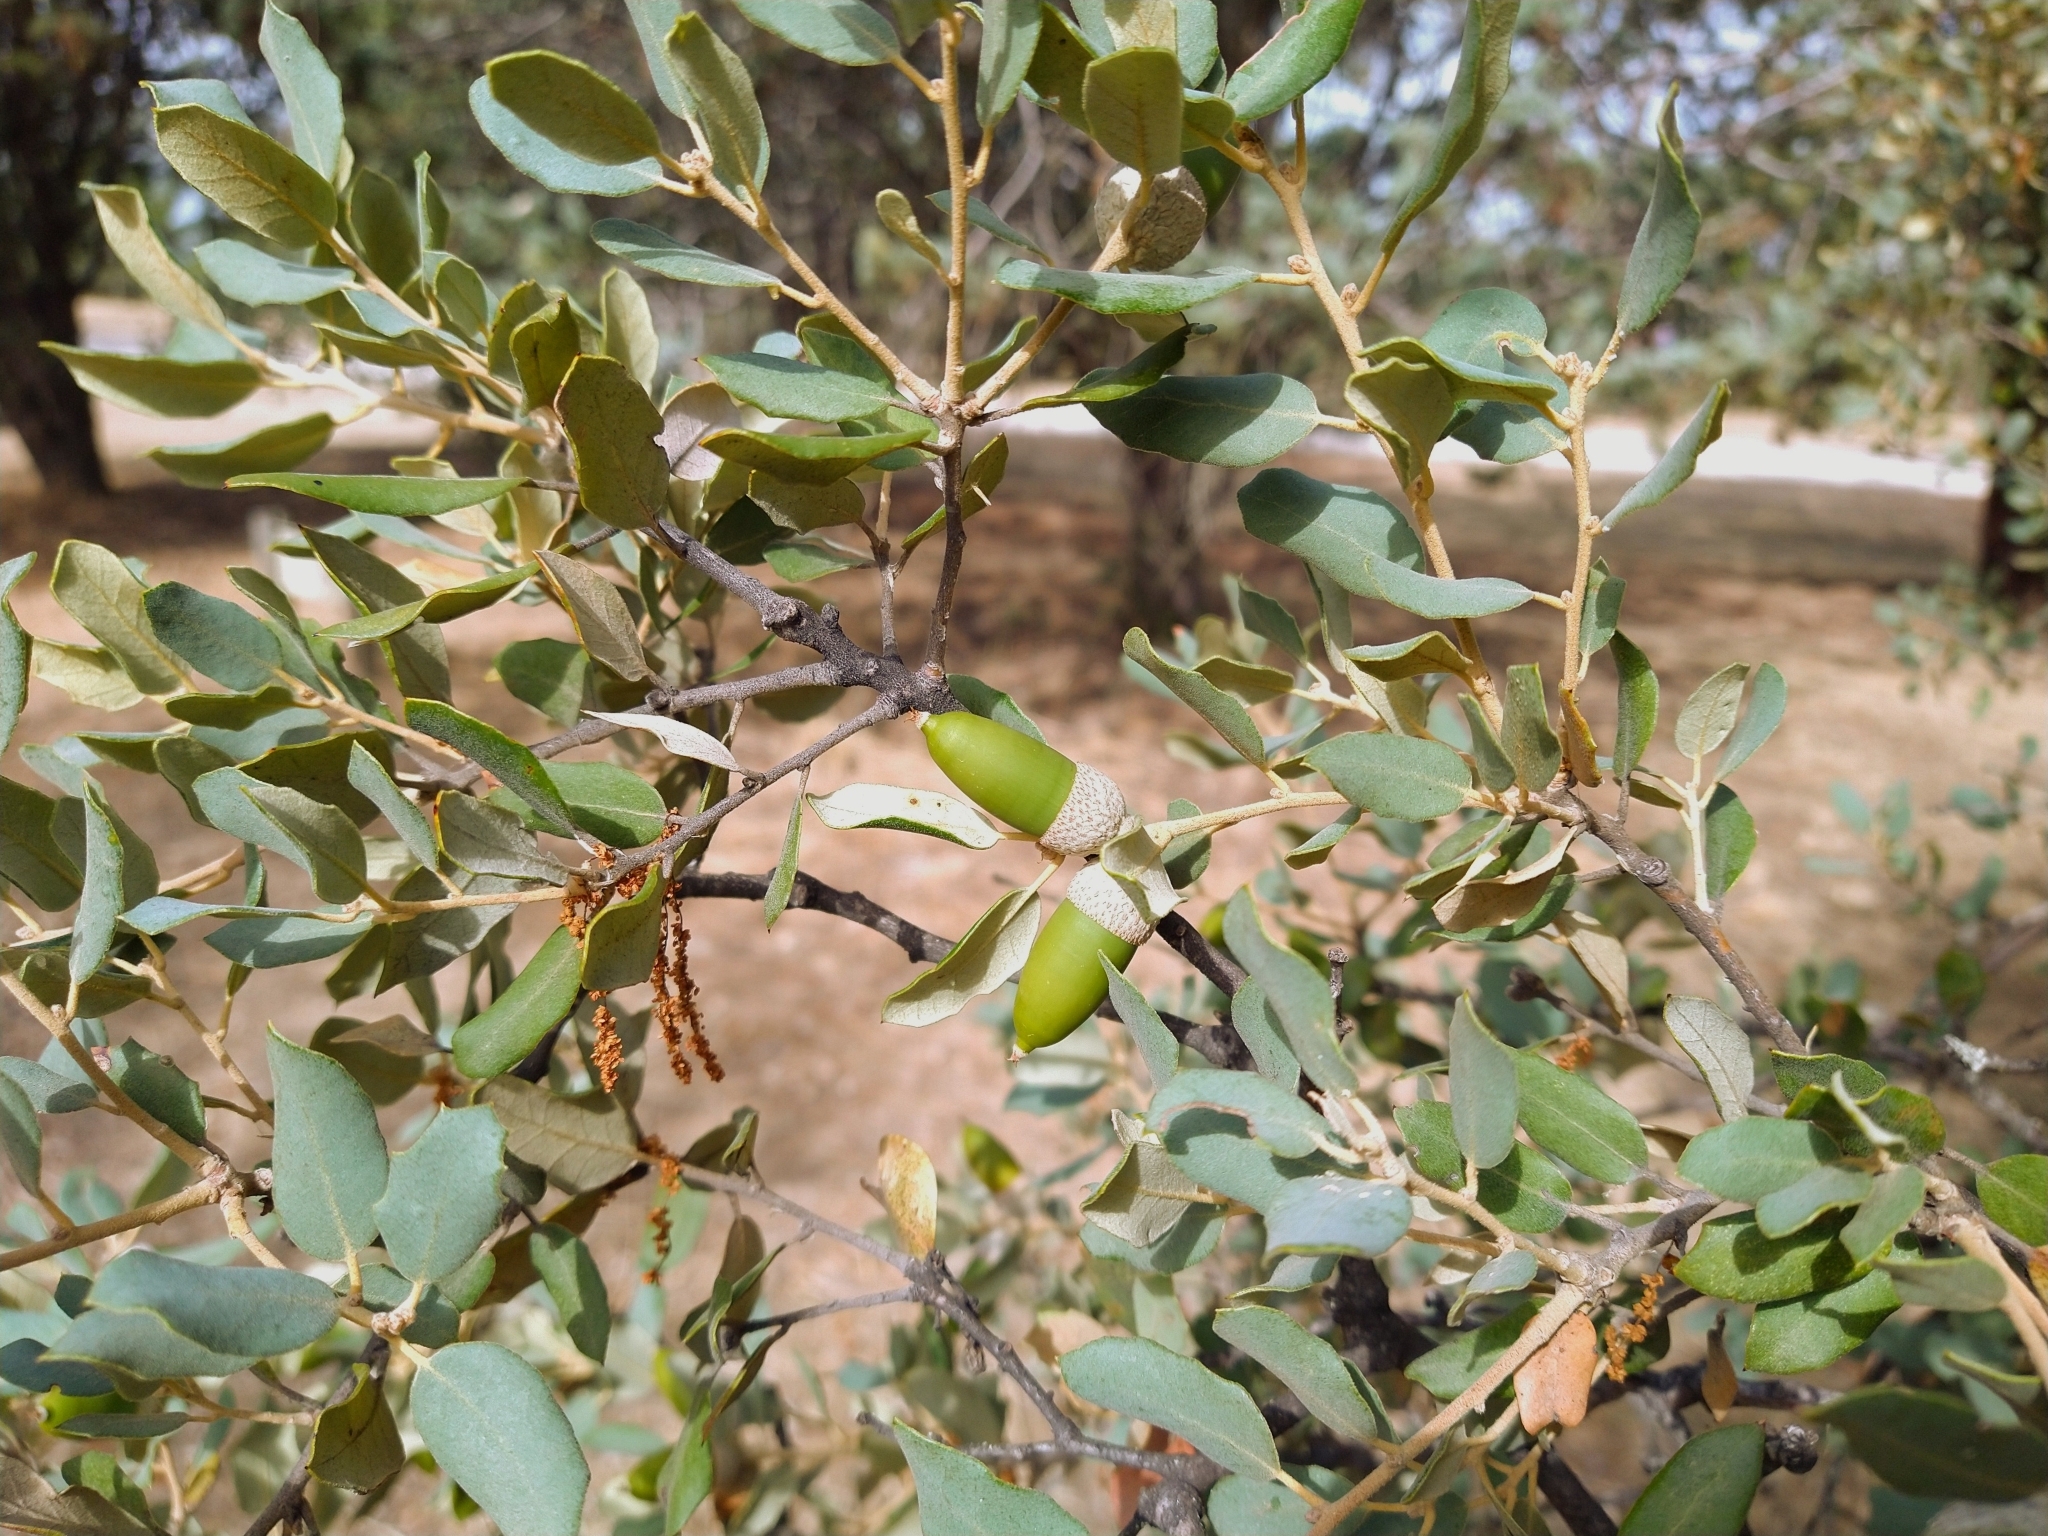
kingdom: Plantae
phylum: Tracheophyta
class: Magnoliopsida
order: Fagales
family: Fagaceae
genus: Quercus
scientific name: Quercus rotundifolia
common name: Holm oak
